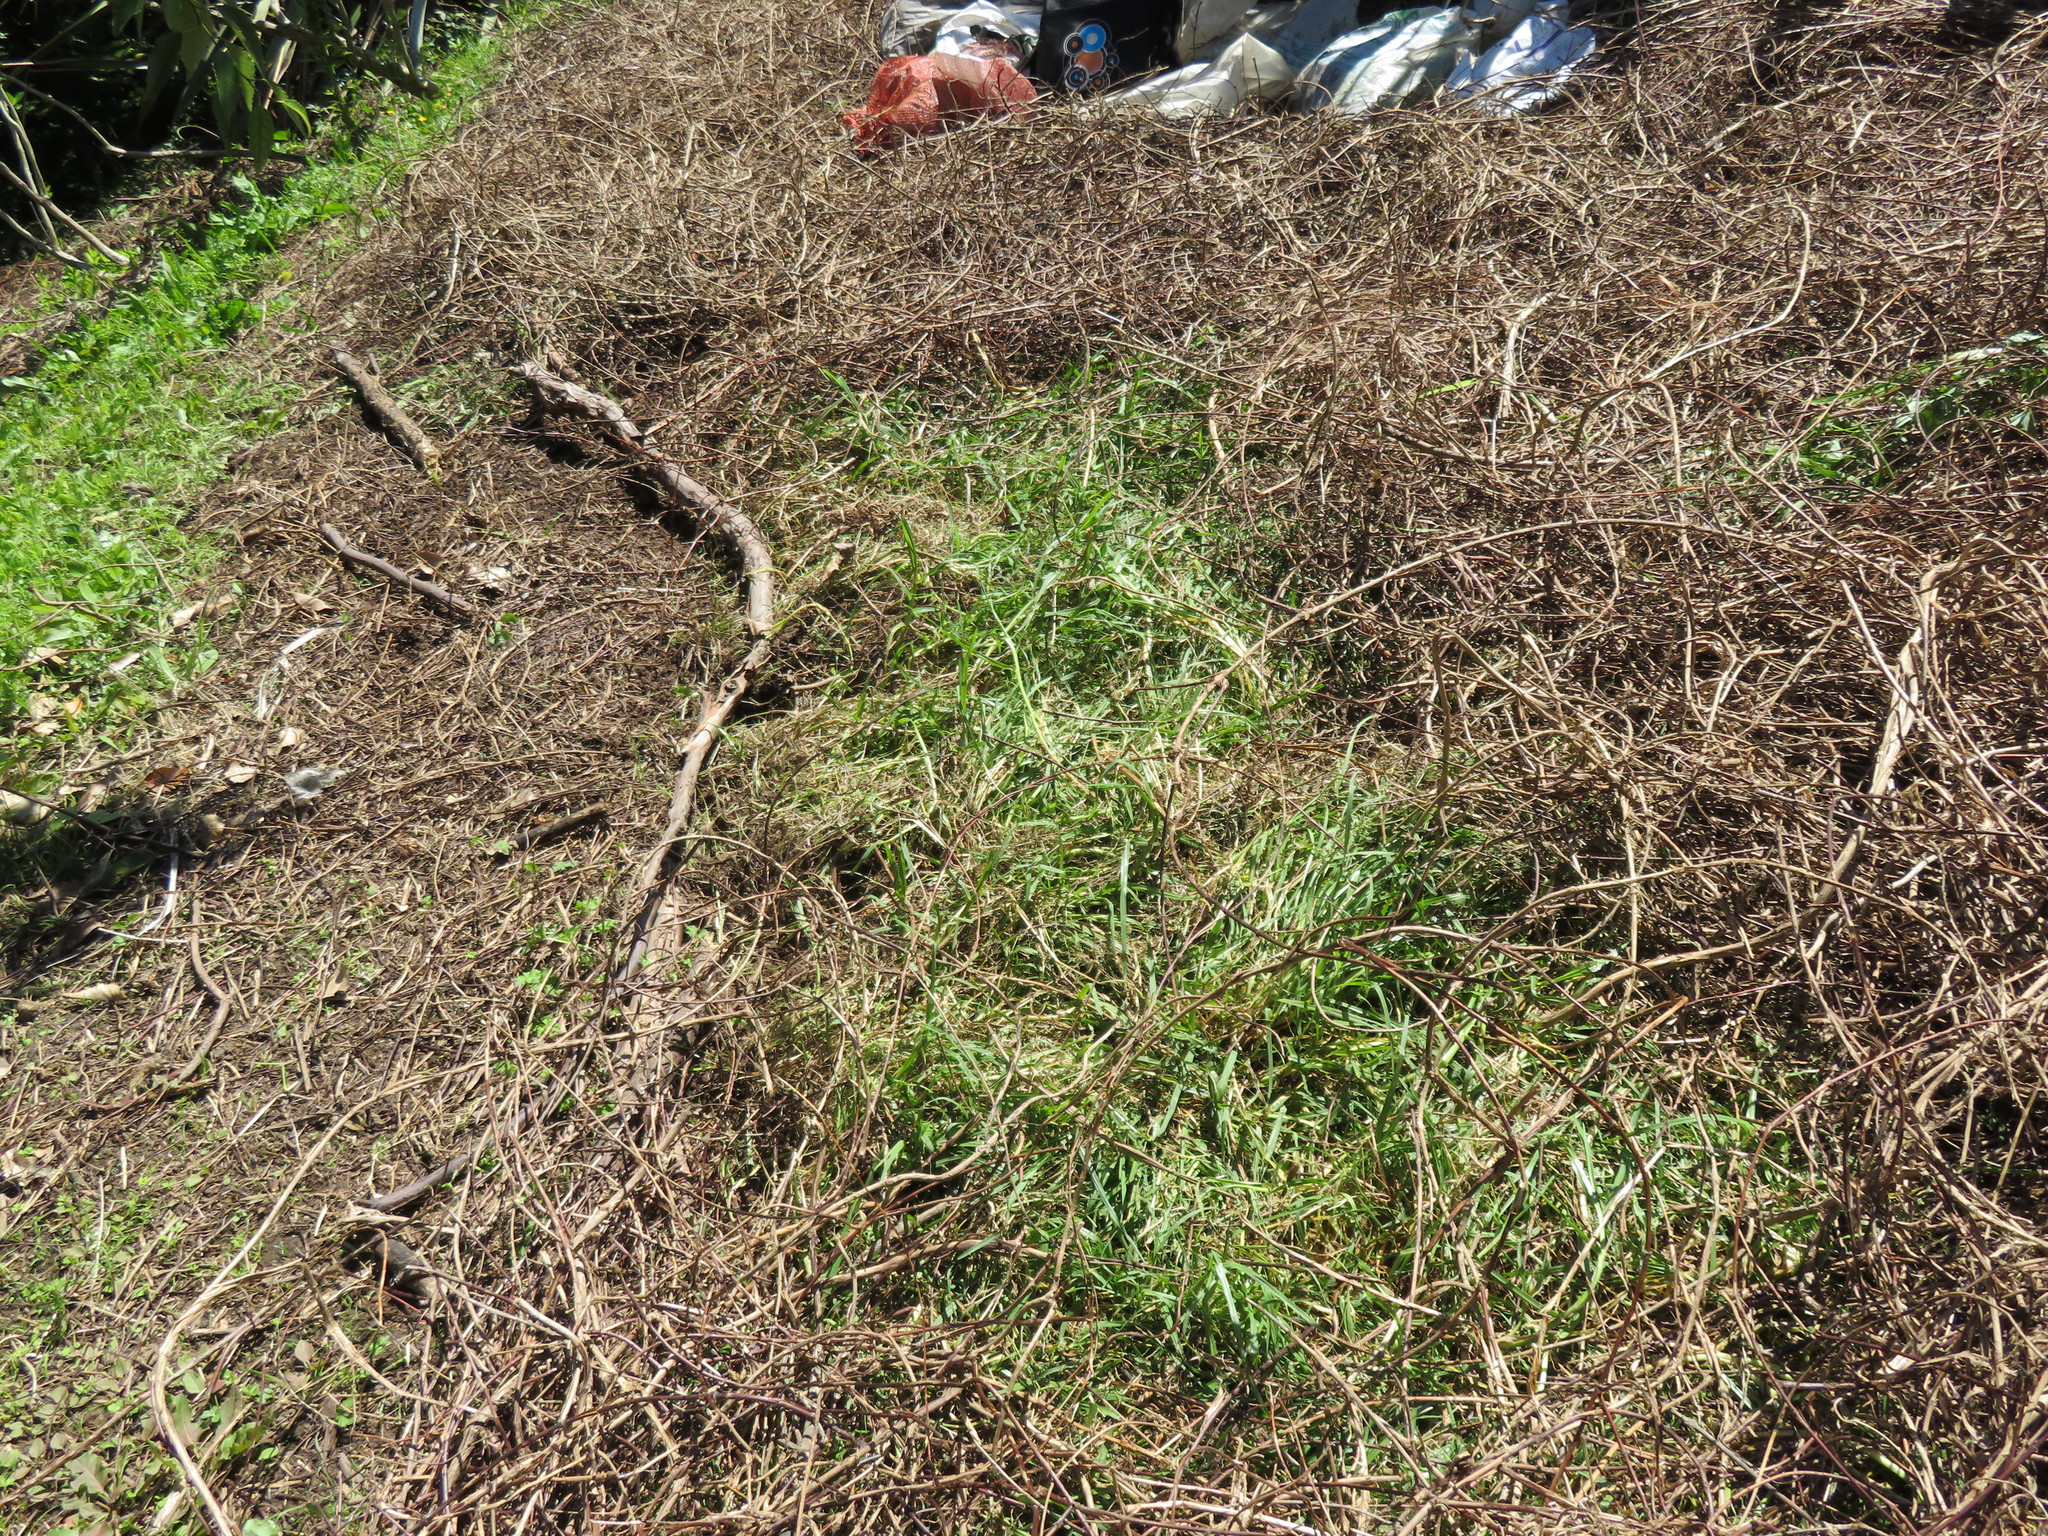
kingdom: Plantae
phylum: Tracheophyta
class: Liliopsida
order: Poales
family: Poaceae
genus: Cenchrus
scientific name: Cenchrus clandestinus
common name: Kikuyugrass
